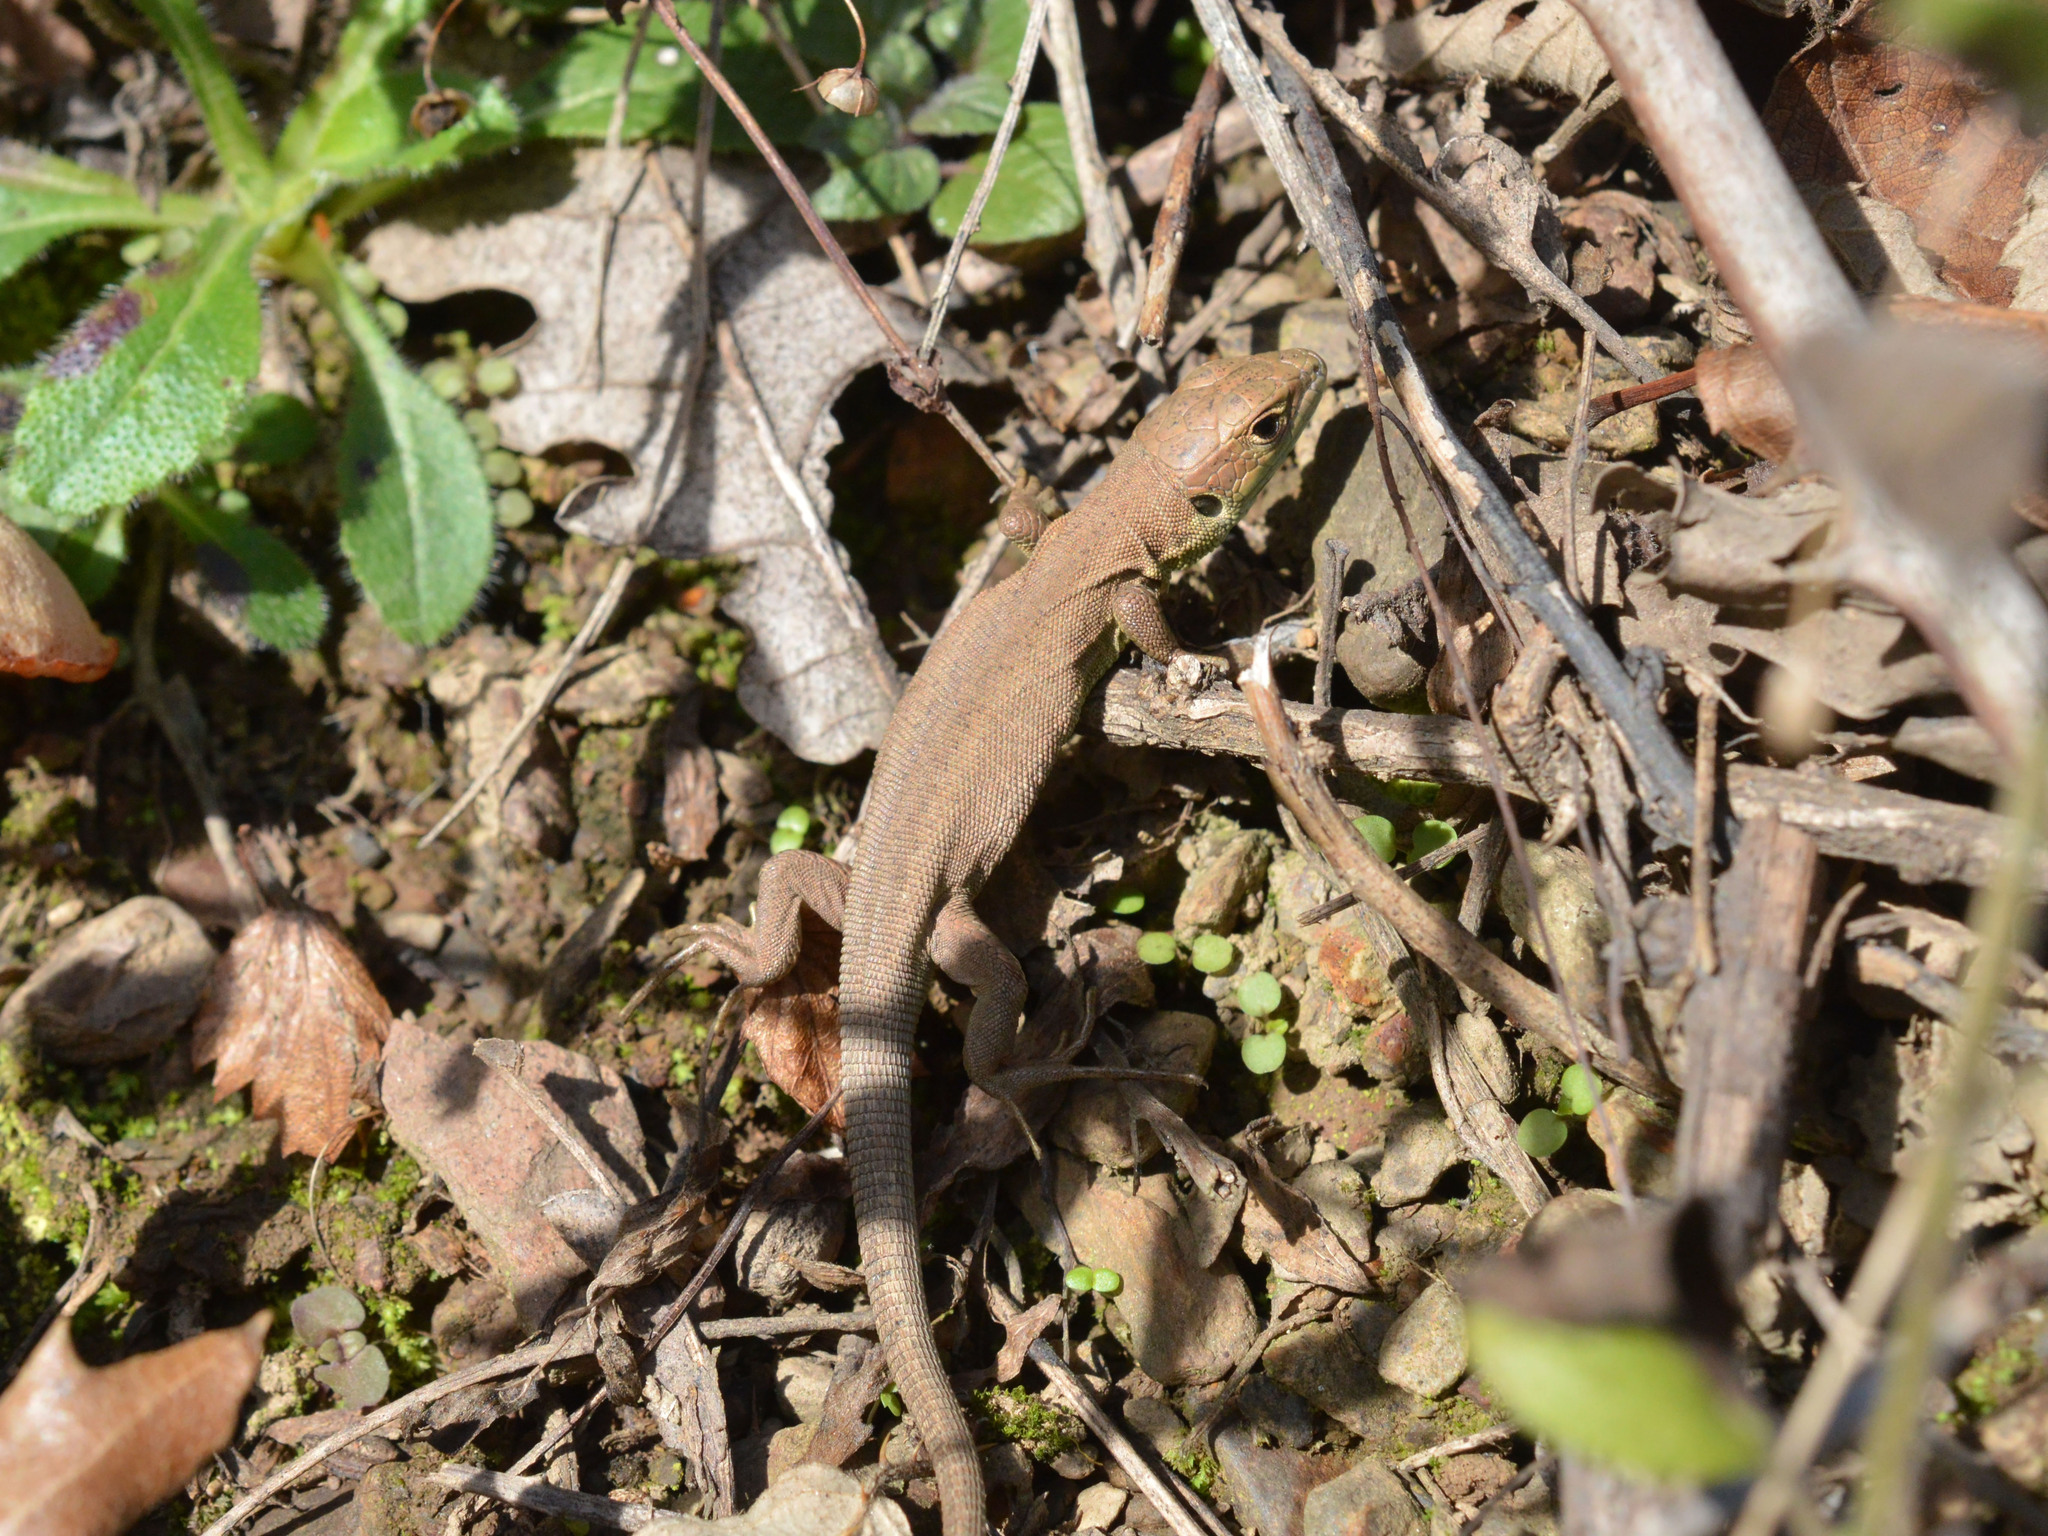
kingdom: Animalia
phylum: Chordata
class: Squamata
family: Lacertidae
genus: Lacerta
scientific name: Lacerta viridis
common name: European green lizard
